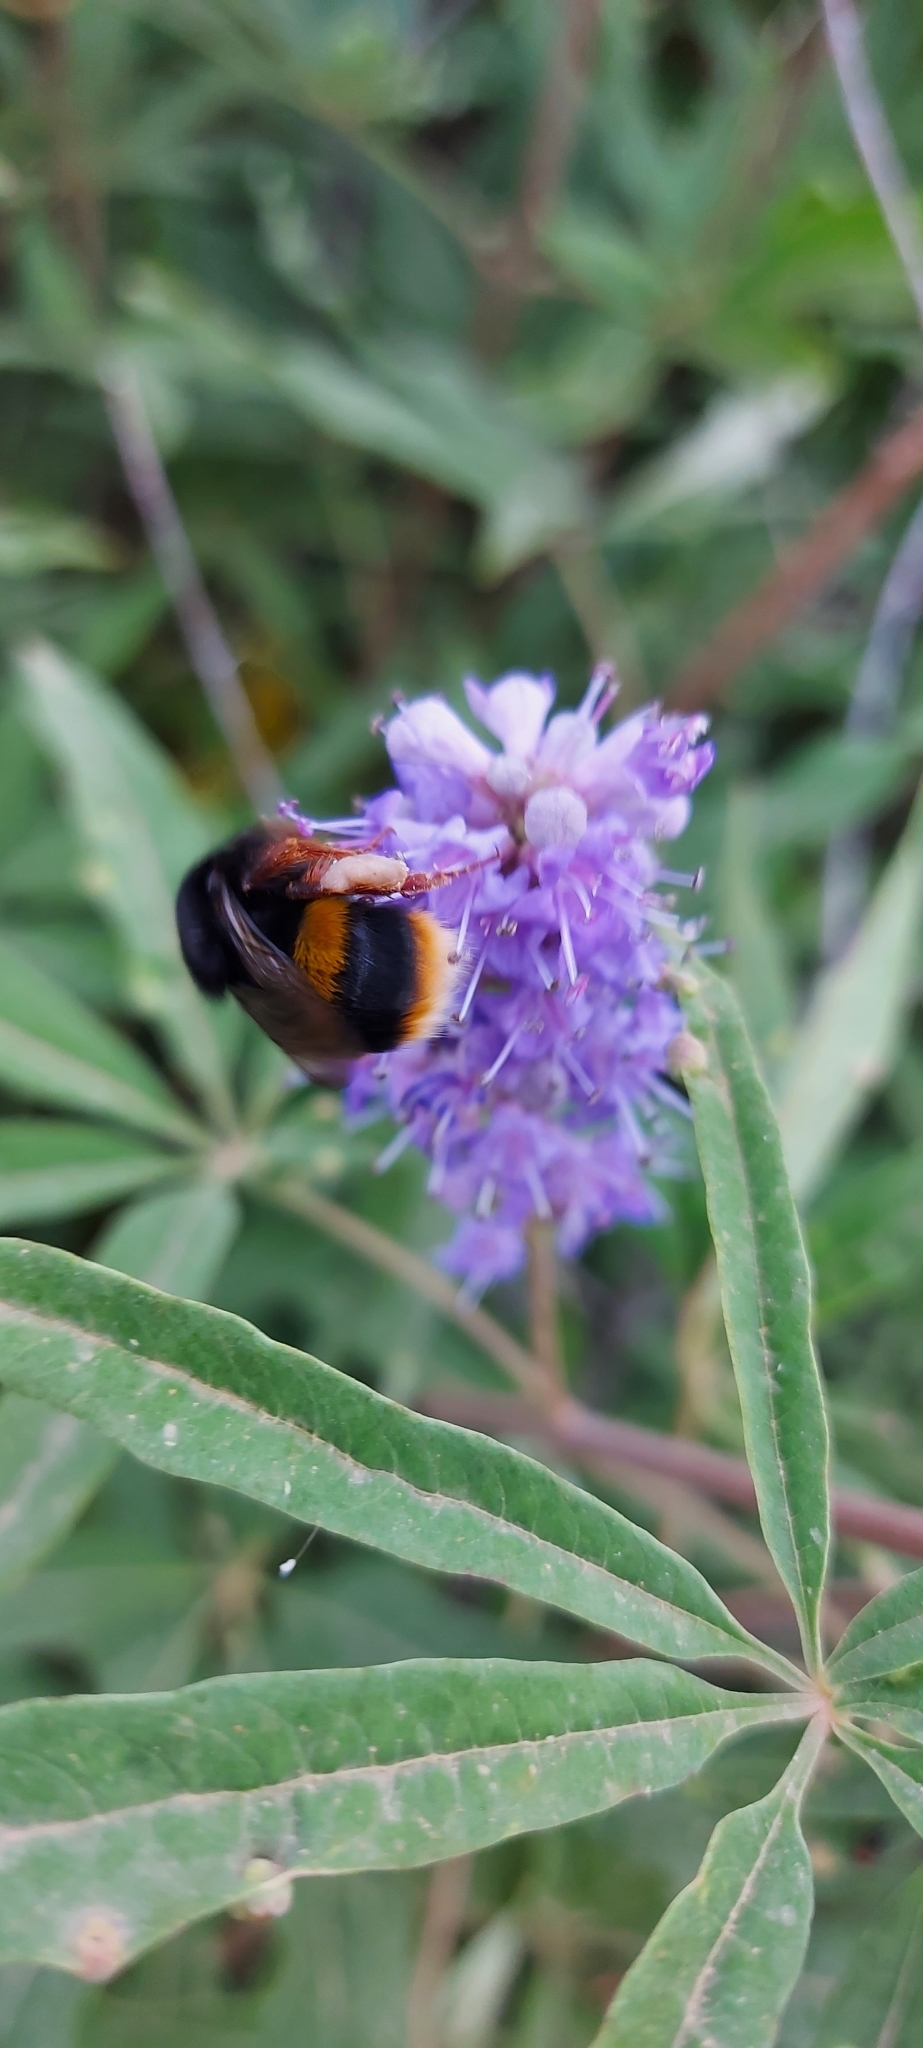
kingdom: Animalia
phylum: Arthropoda
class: Insecta
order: Hymenoptera
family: Apidae
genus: Bombus
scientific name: Bombus terrestris
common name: Buff-tailed bumblebee
